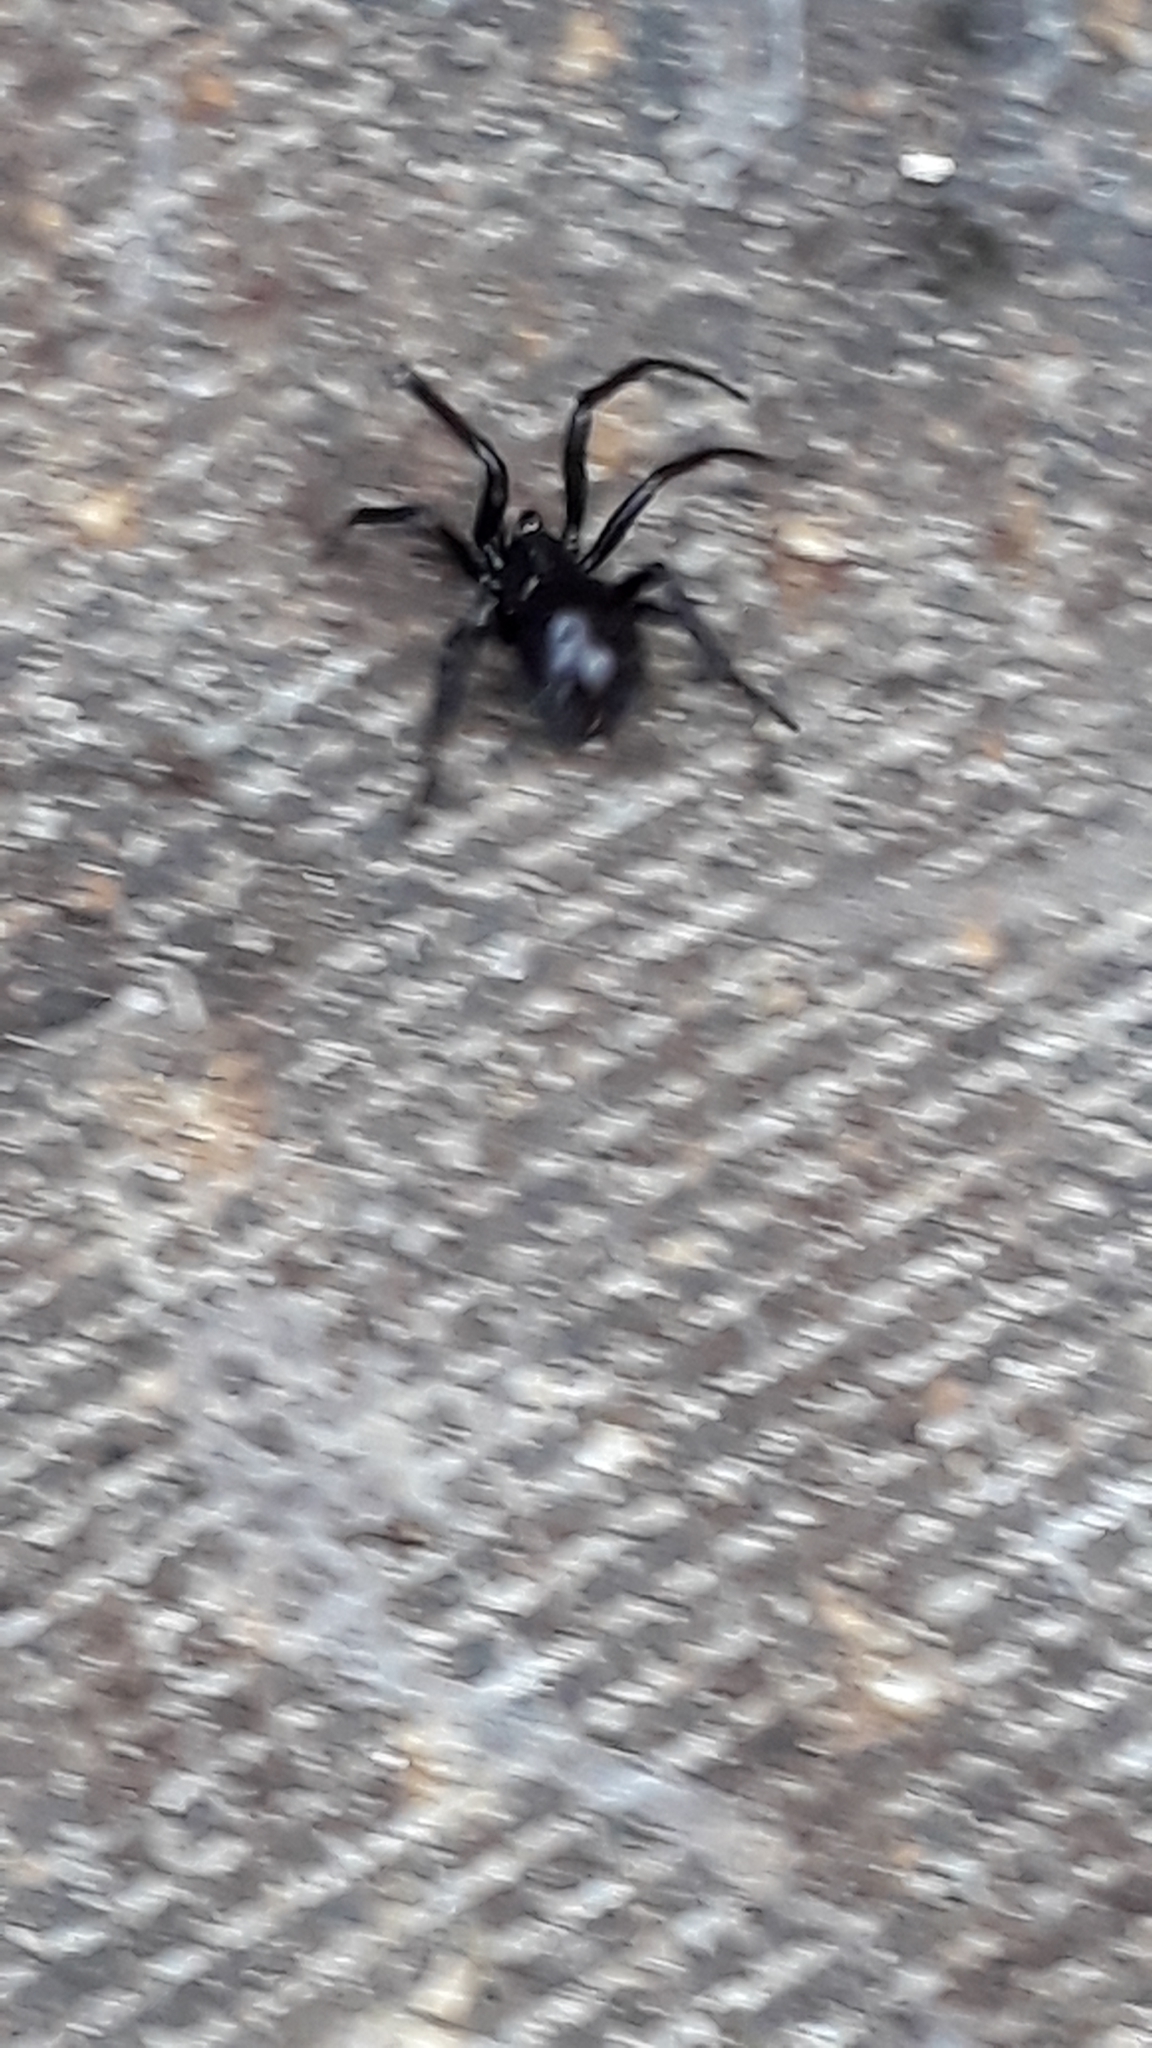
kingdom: Animalia
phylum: Arthropoda
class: Arachnida
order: Araneae
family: Theridiidae
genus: Steatoda
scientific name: Steatoda capensis
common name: Cobweb weaver
